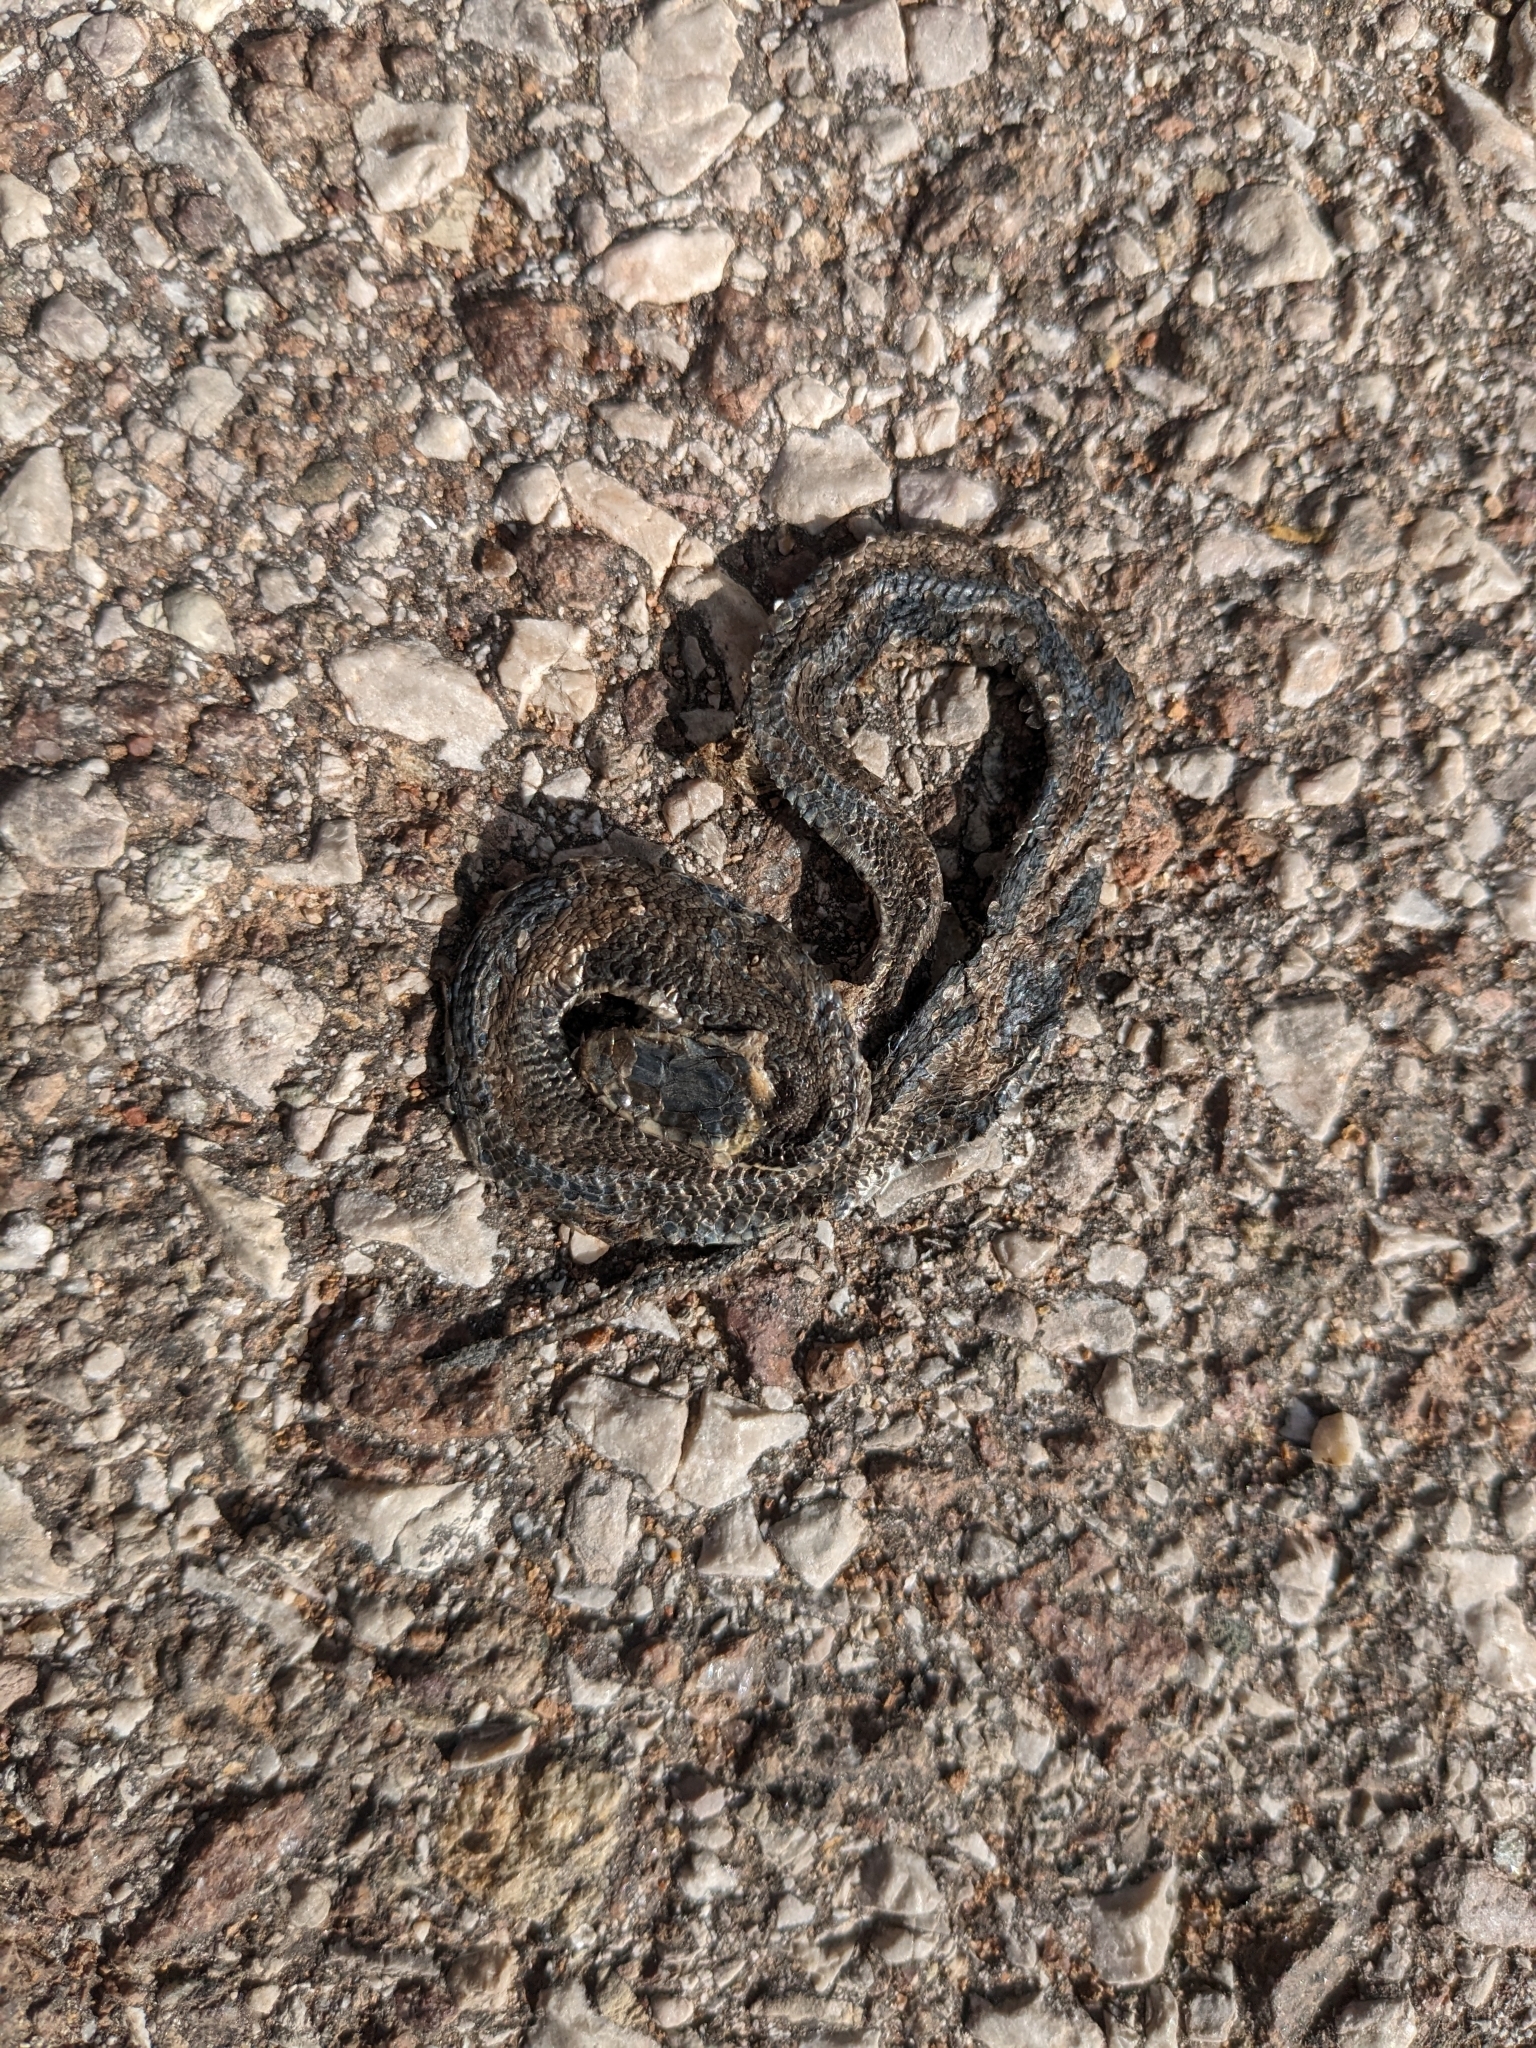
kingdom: Animalia
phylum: Chordata
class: Squamata
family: Colubridae
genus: Natrix
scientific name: Natrix helvetica
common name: Banded grass snake
